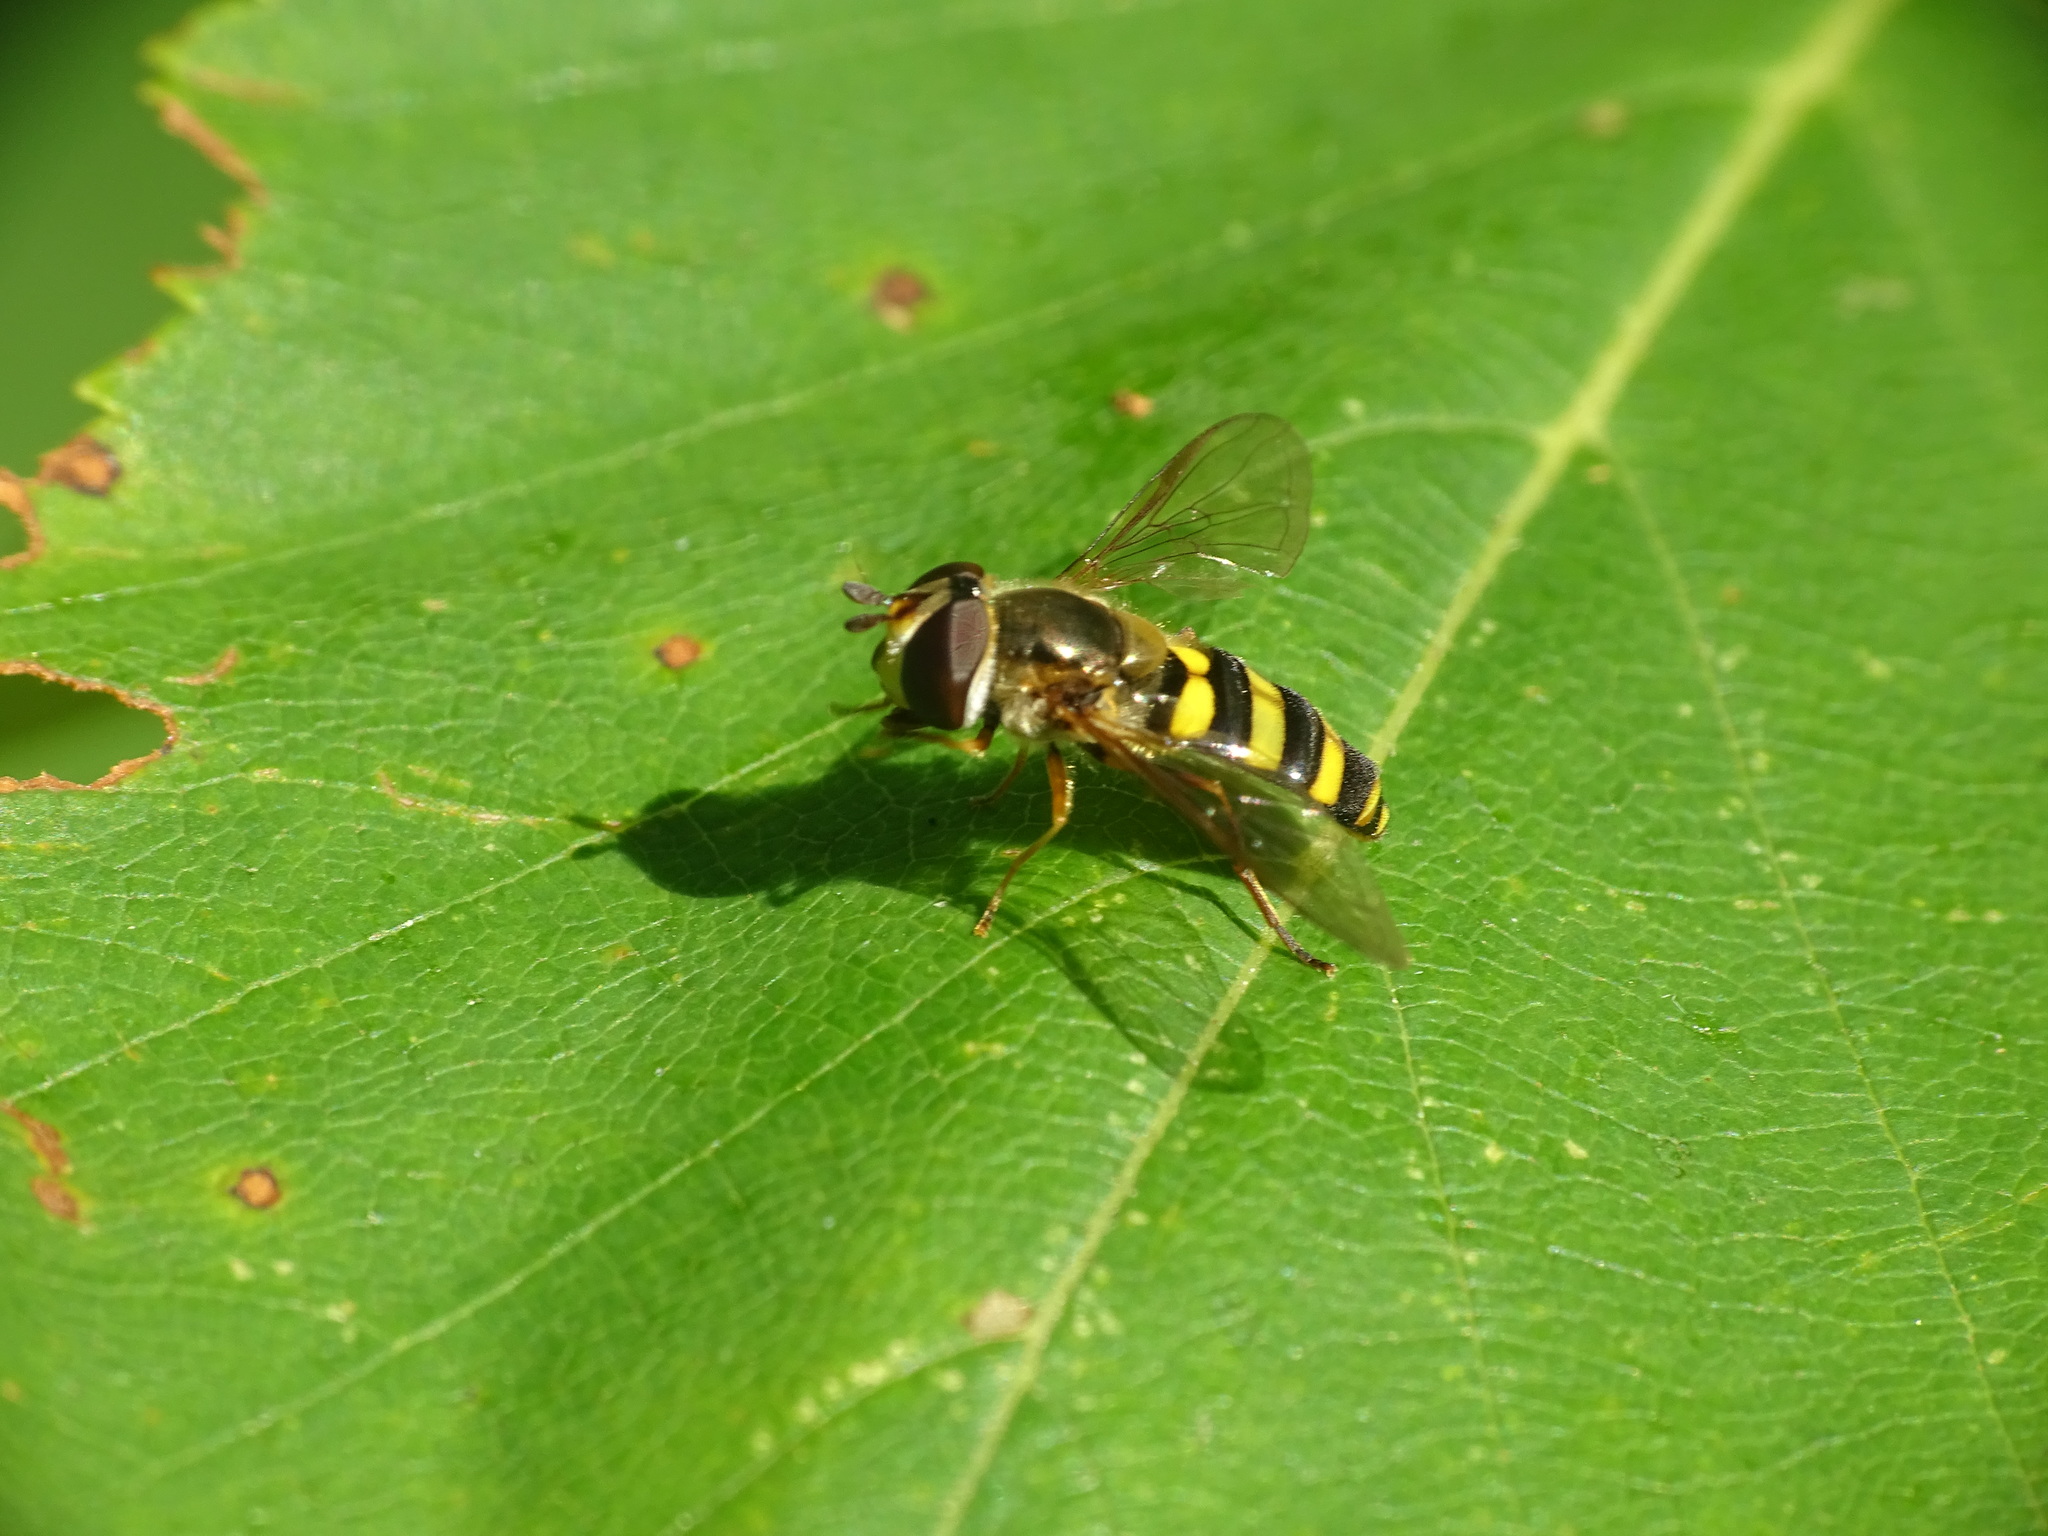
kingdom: Animalia
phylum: Arthropoda
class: Insecta
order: Diptera
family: Syrphidae
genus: Eupeodes
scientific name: Eupeodes
